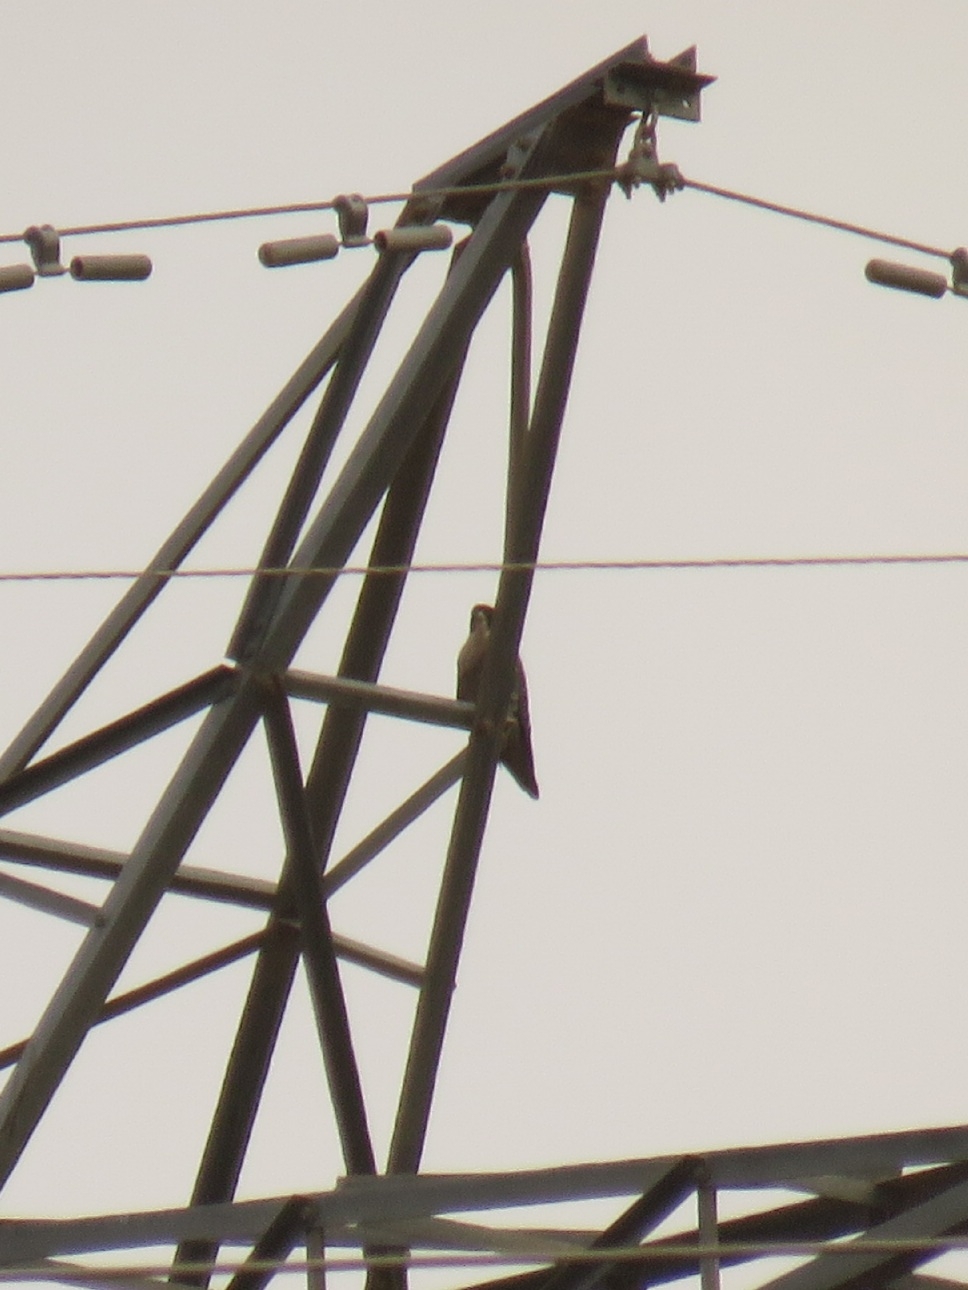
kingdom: Animalia
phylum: Chordata
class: Aves
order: Falconiformes
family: Falconidae
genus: Falco
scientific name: Falco peregrinus
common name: Peregrine falcon
